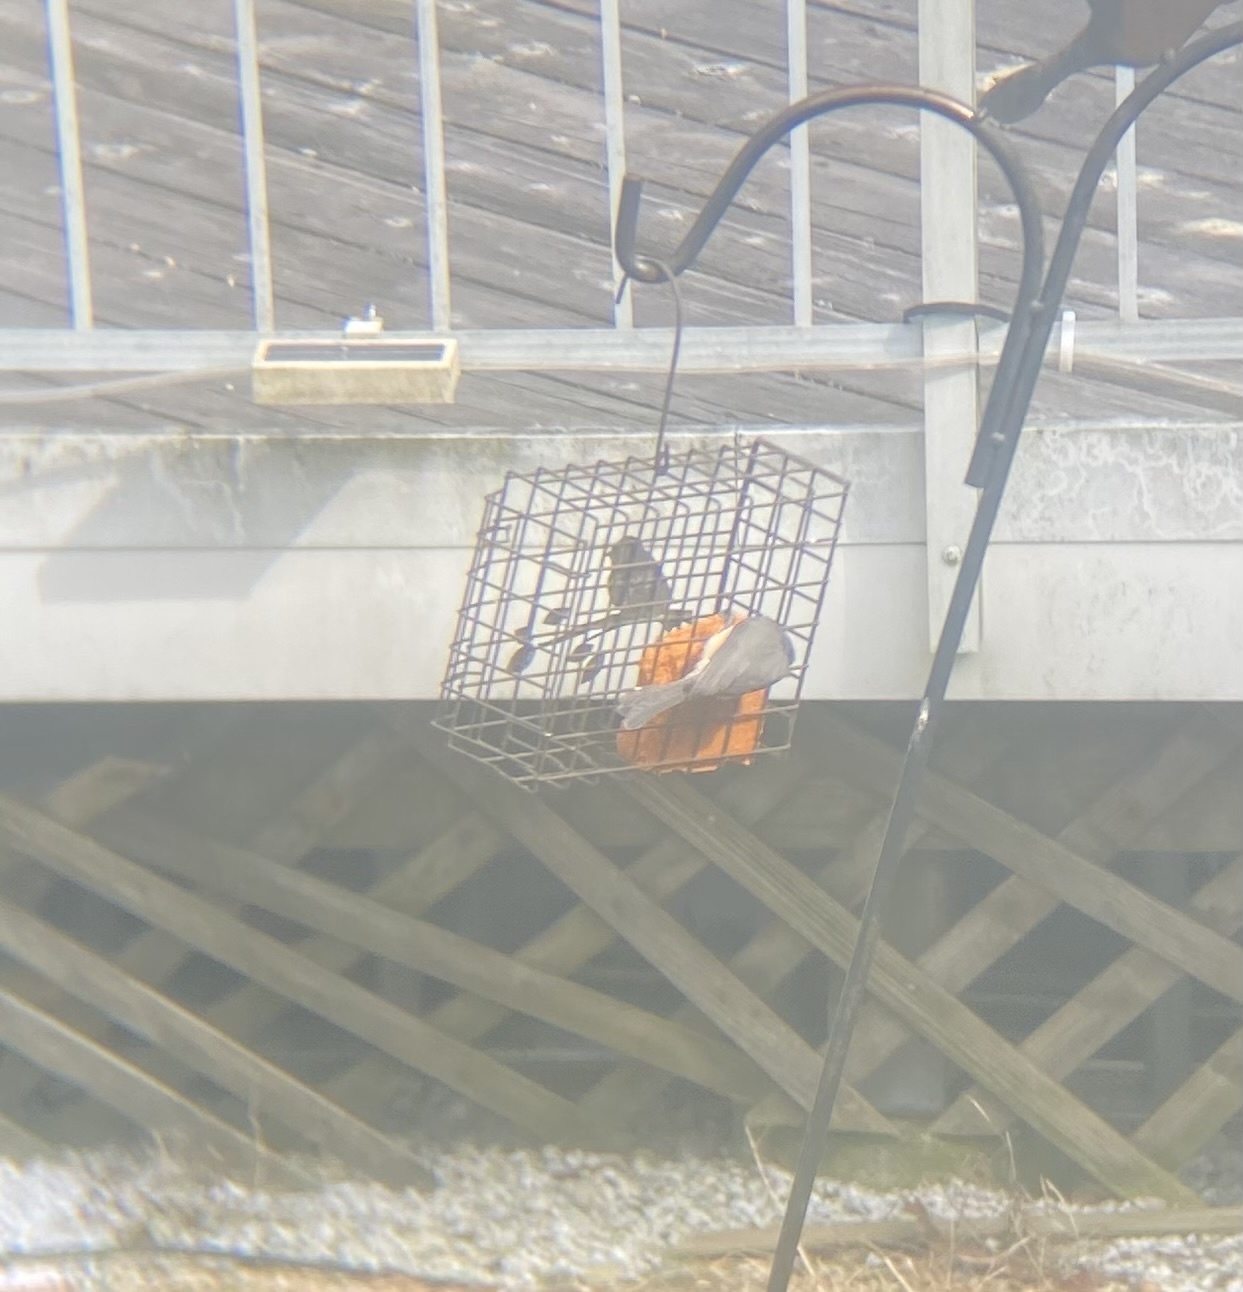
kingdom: Animalia
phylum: Chordata
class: Aves
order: Passeriformes
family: Paridae
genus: Baeolophus
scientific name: Baeolophus bicolor
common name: Tufted titmouse
